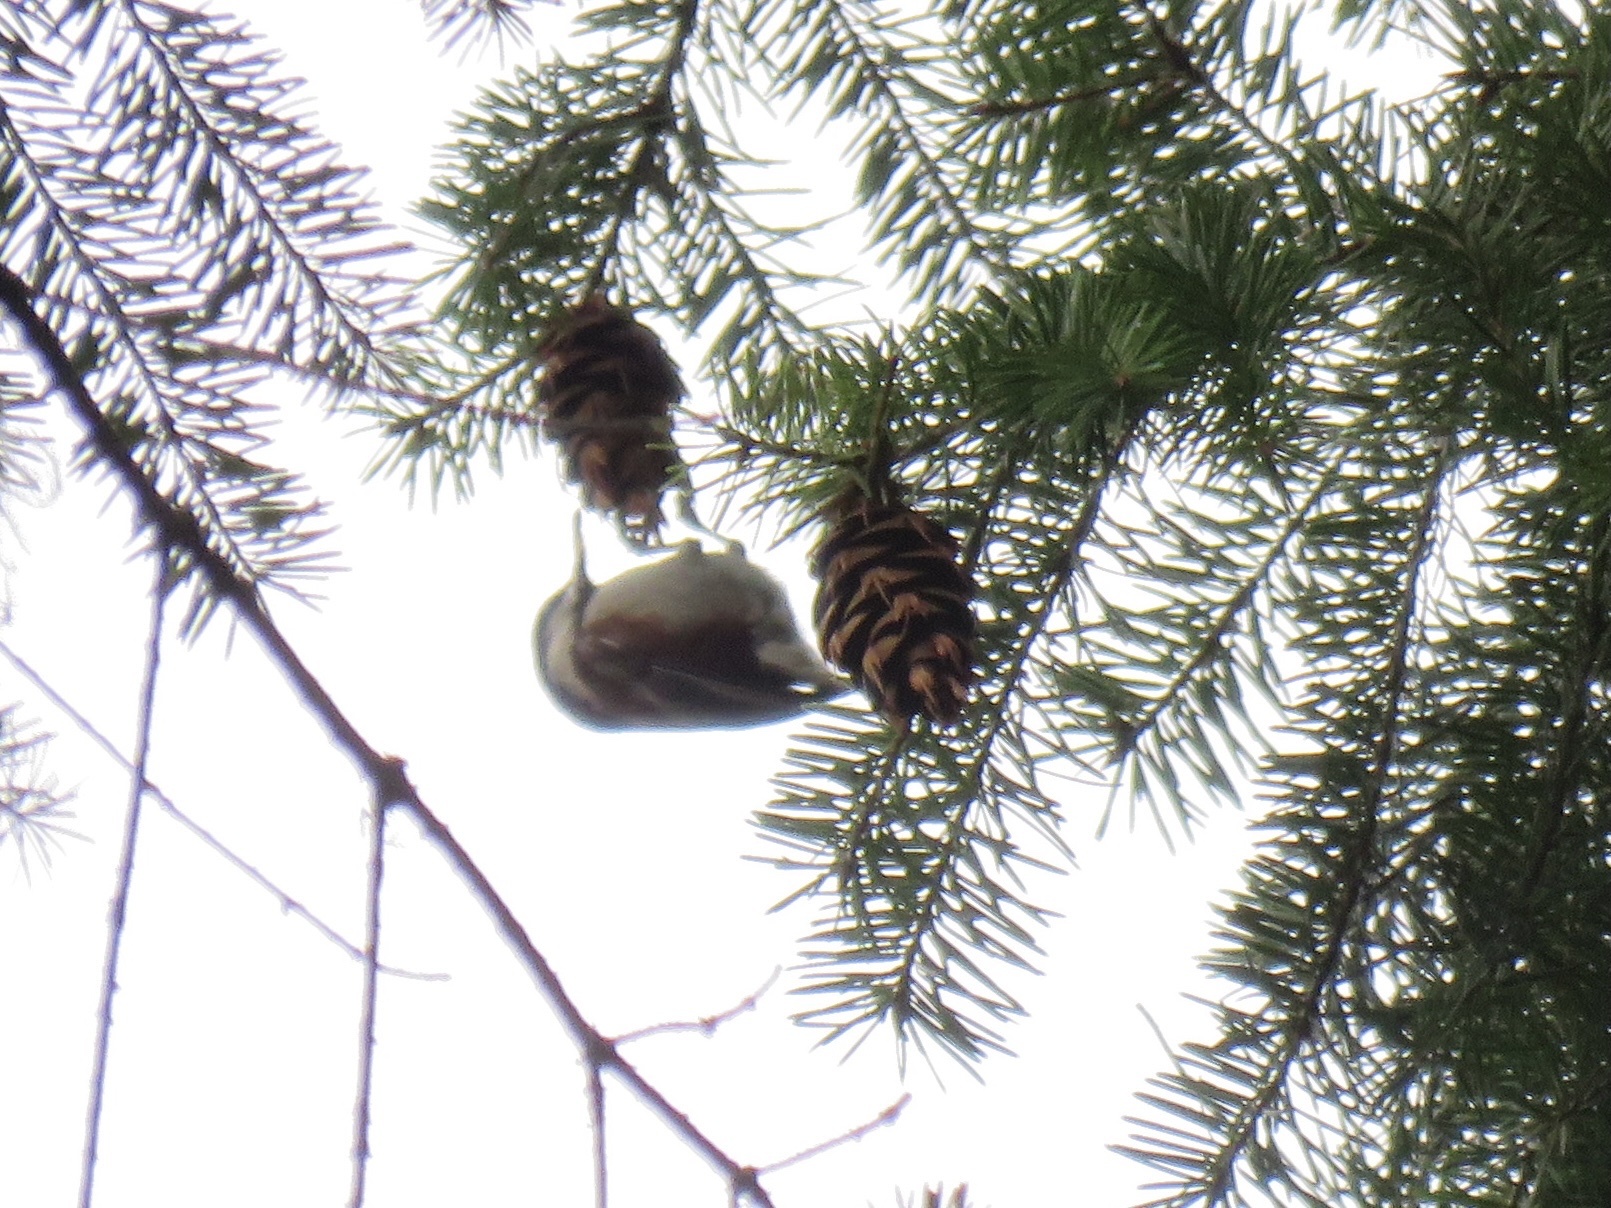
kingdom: Animalia
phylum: Chordata
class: Aves
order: Passeriformes
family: Paridae
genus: Poecile
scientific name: Poecile rufescens
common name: Chestnut-backed chickadee
